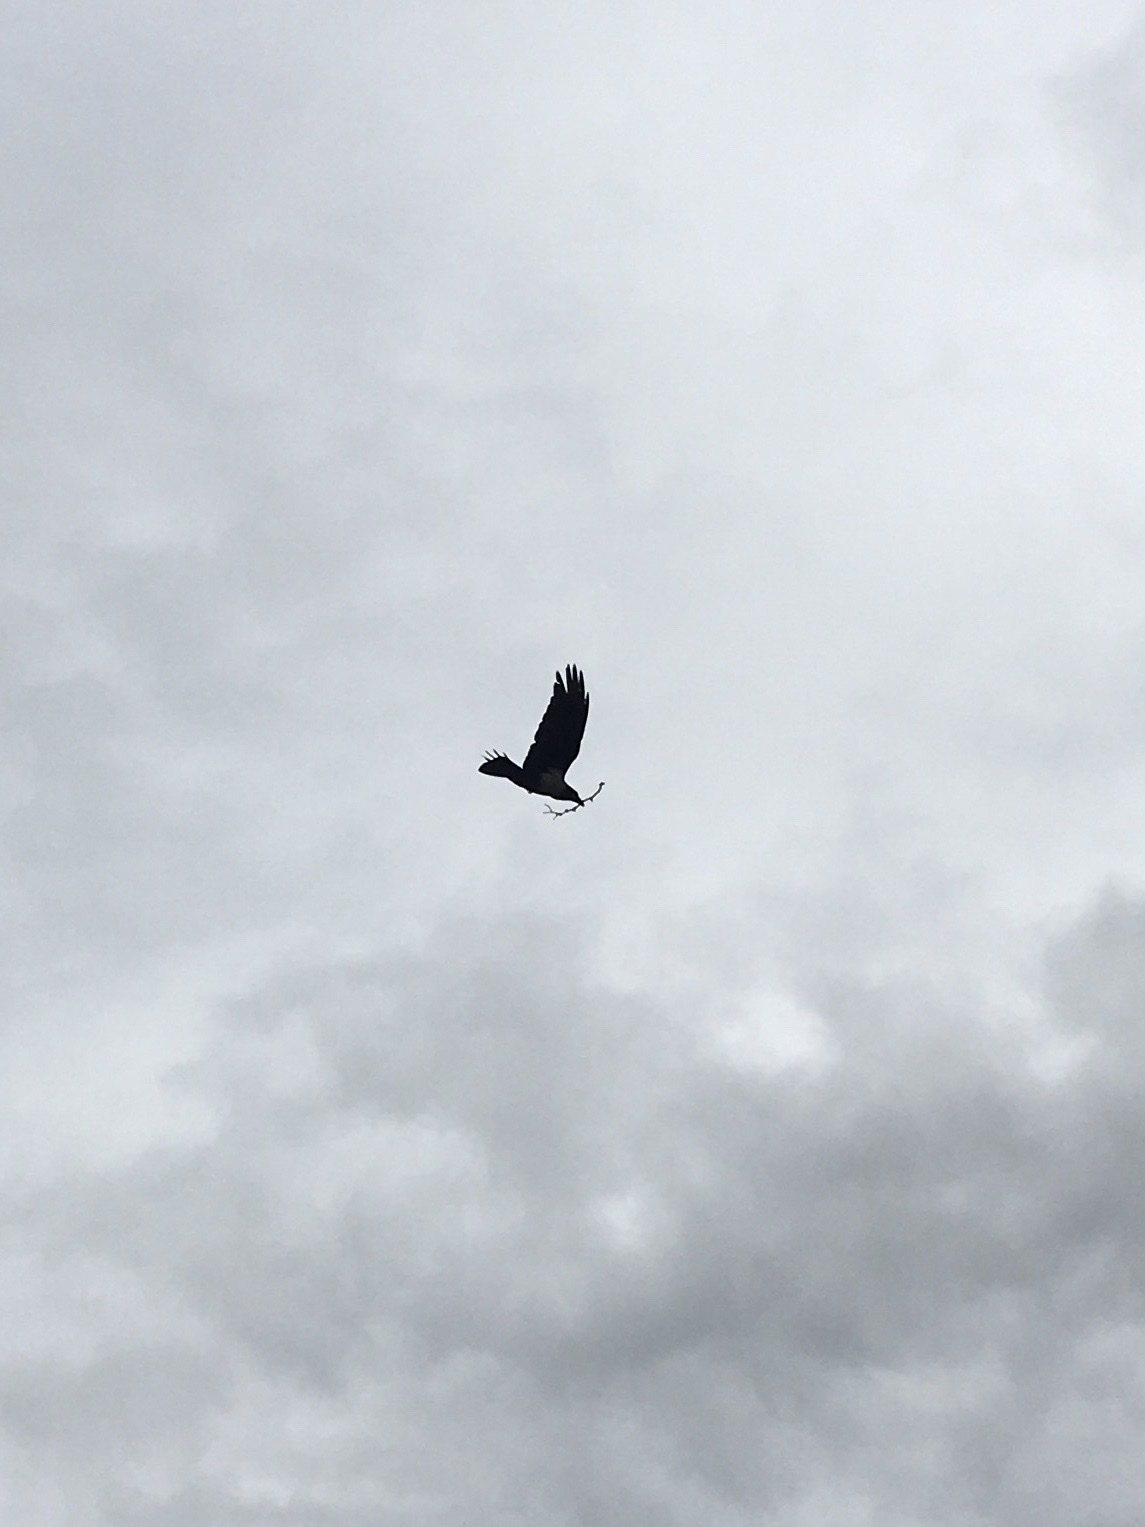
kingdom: Animalia
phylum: Chordata
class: Aves
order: Passeriformes
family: Corvidae
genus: Corvus
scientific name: Corvus albus
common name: Pied crow
